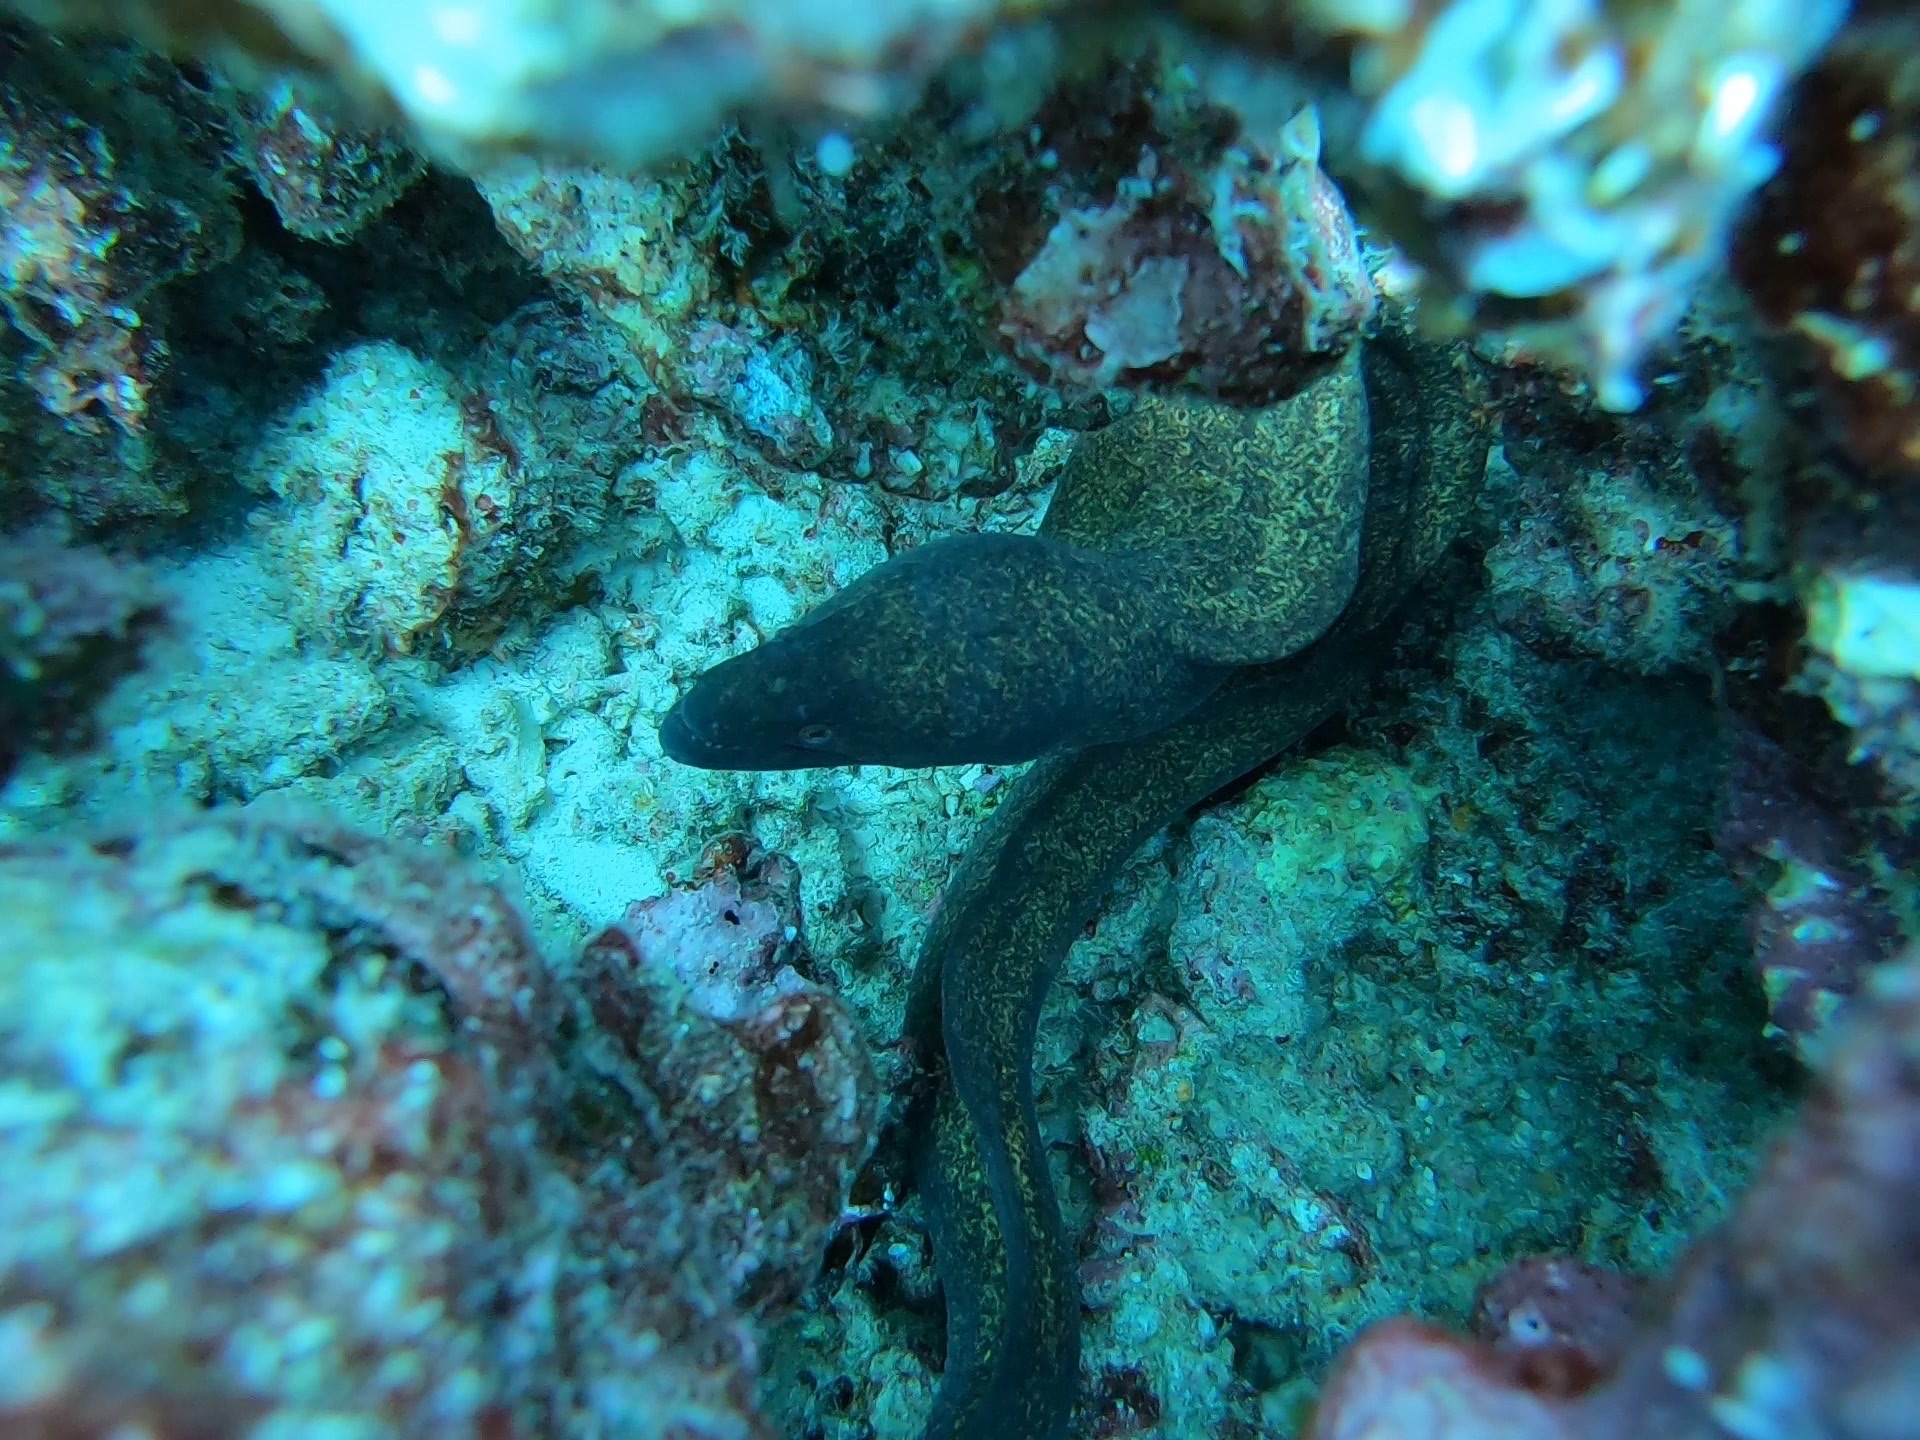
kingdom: Animalia
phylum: Chordata
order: Anguilliformes
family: Muraenidae
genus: Gymnothorax
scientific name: Gymnothorax flavimarginatus
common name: Yellow-edged moray
